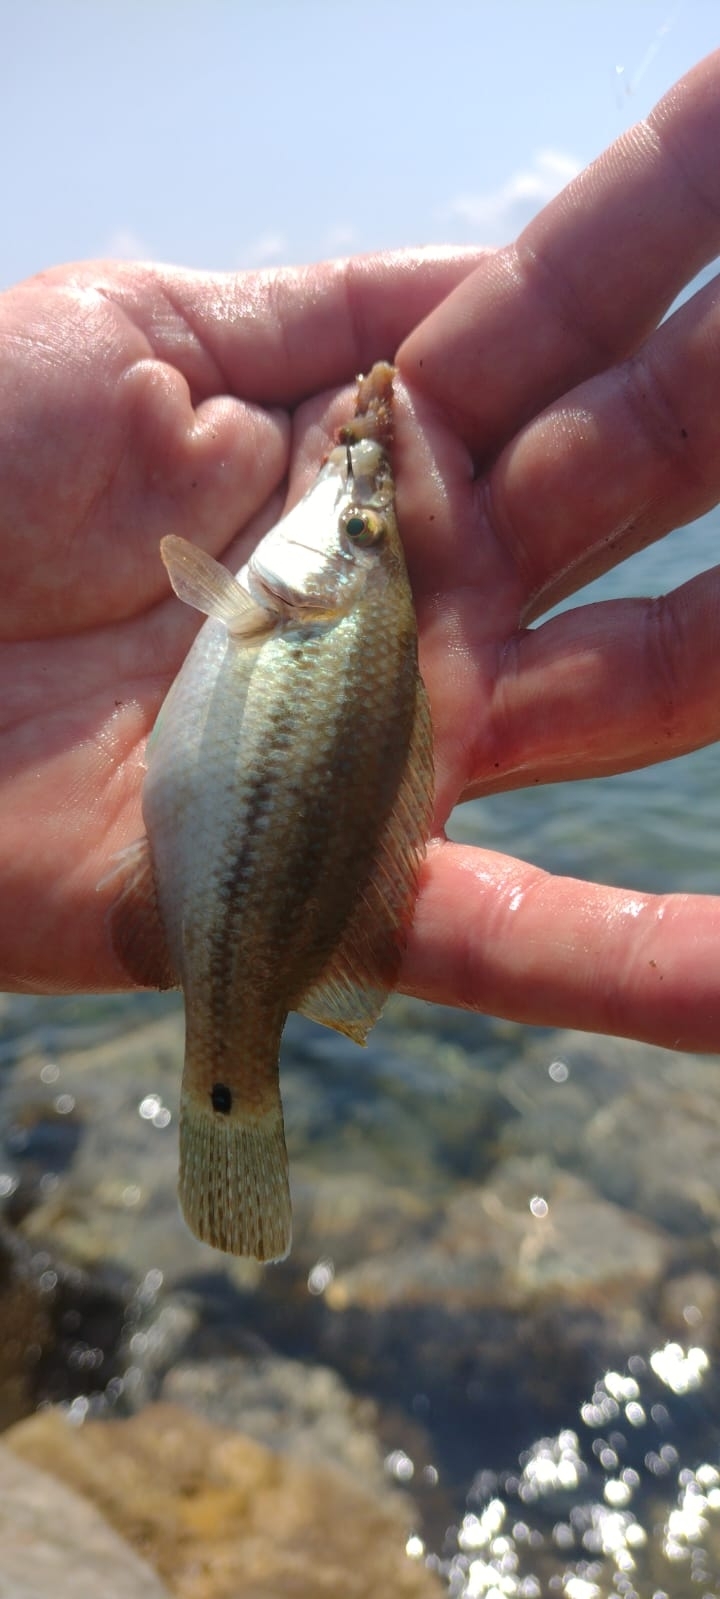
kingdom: Animalia
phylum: Chordata
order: Perciformes
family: Labridae
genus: Symphodus
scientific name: Symphodus tinca
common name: Peacock wrasse
